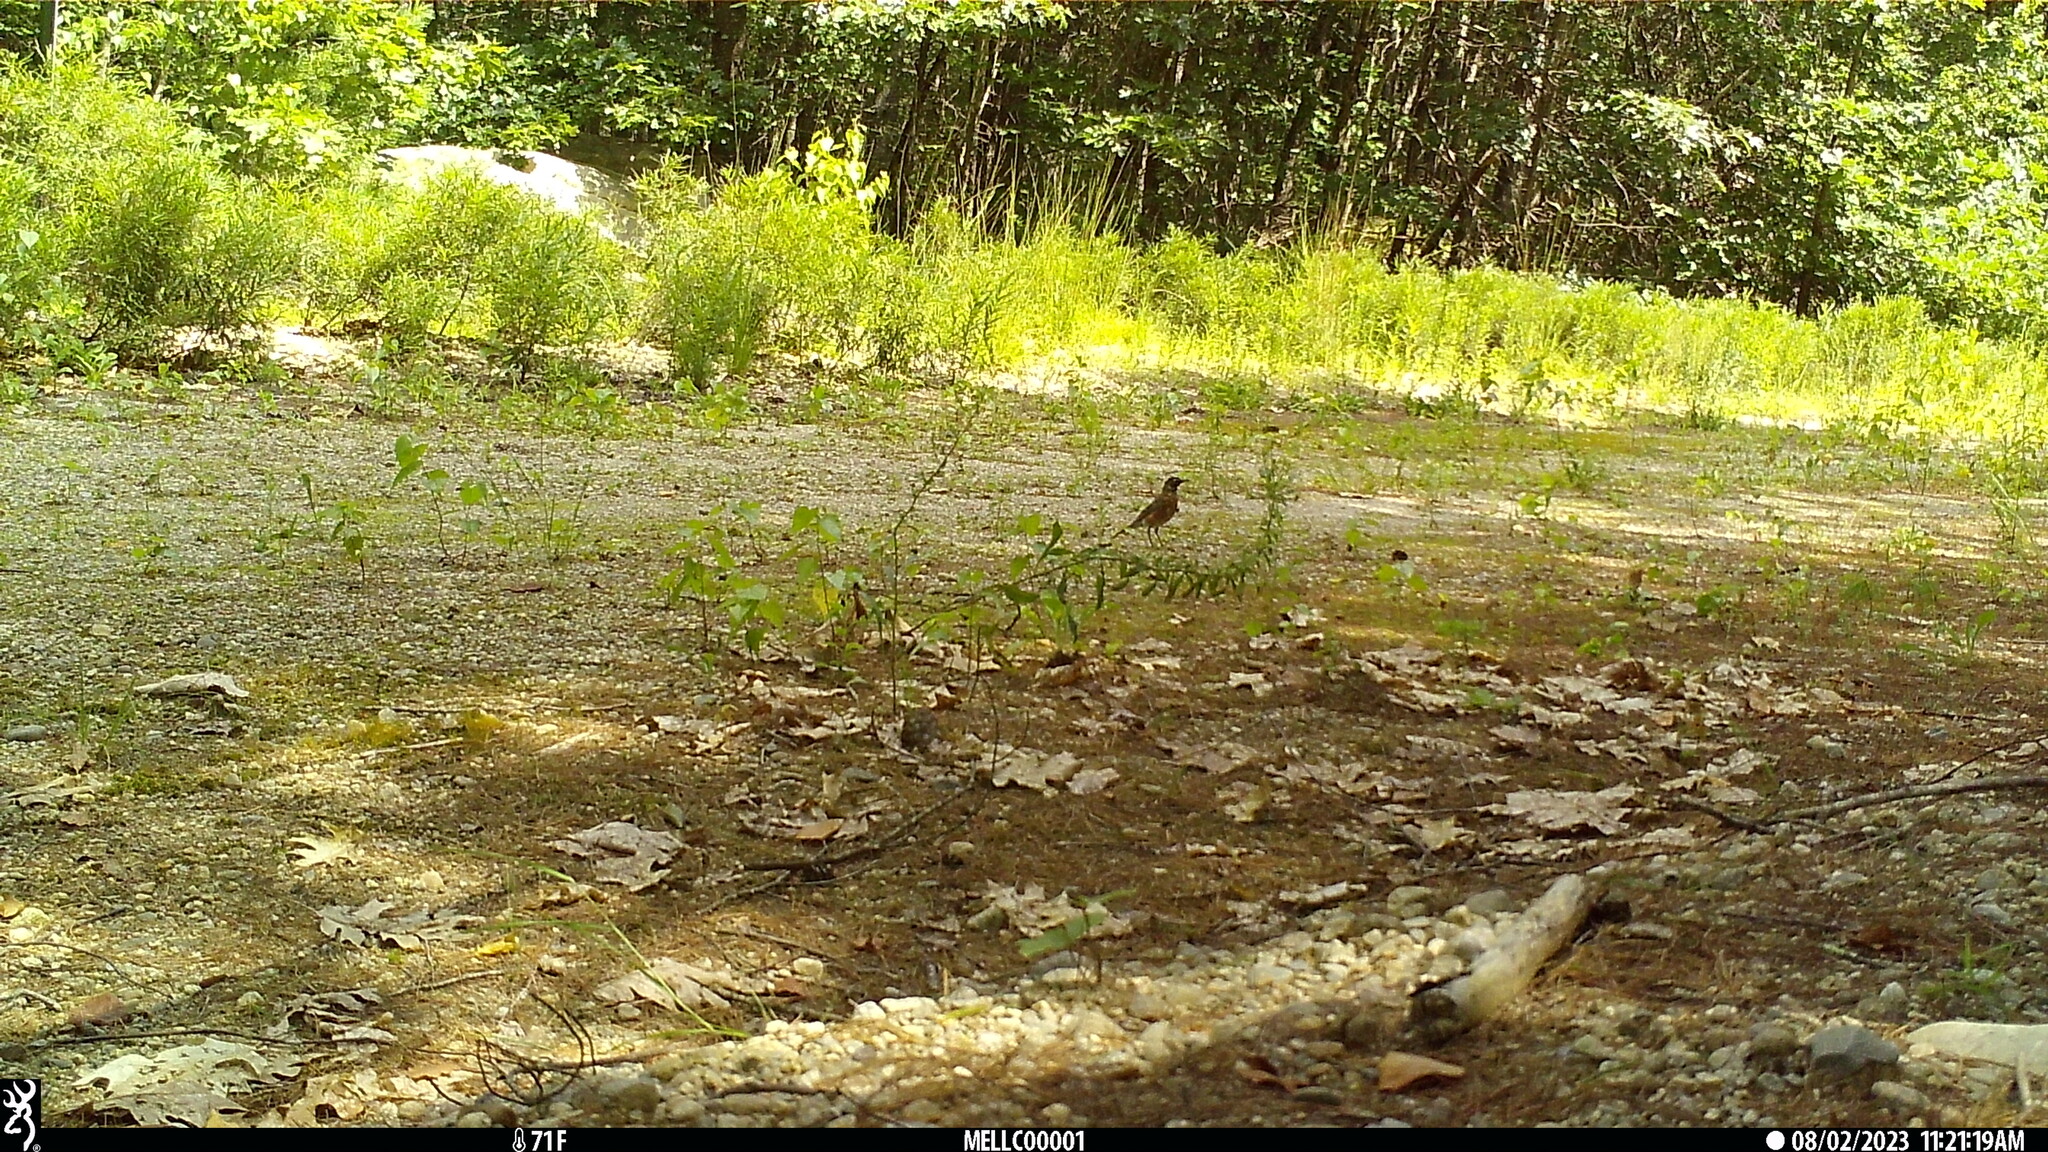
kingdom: Animalia
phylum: Chordata
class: Aves
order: Passeriformes
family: Turdidae
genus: Turdus
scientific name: Turdus migratorius
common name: American robin
